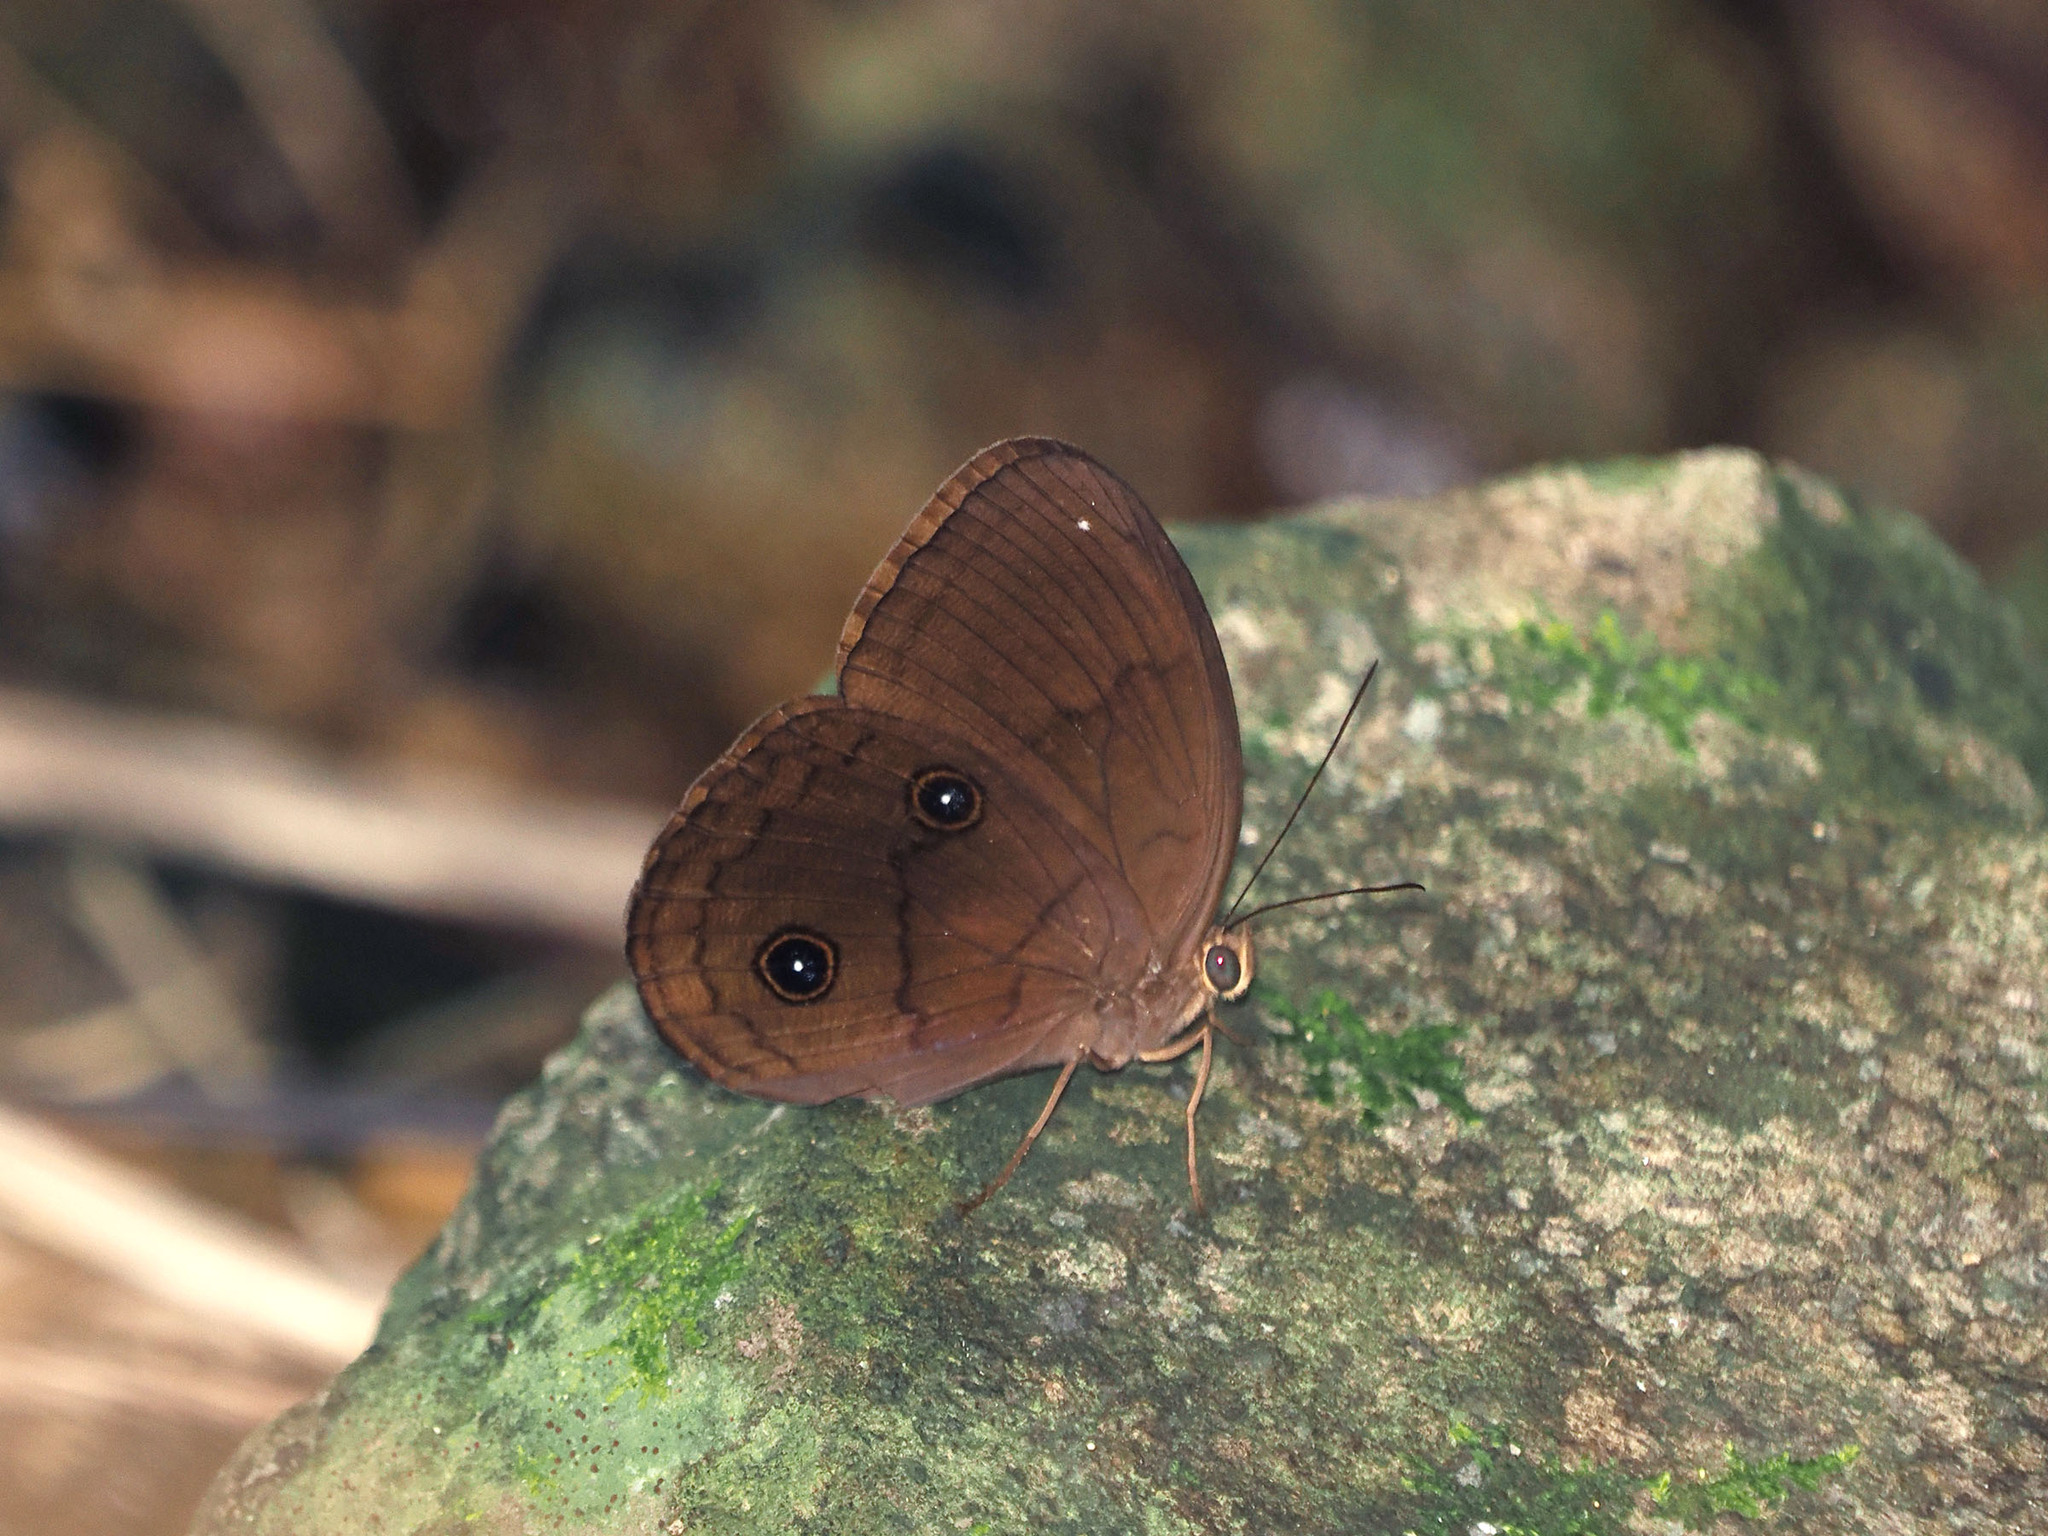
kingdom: Animalia
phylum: Arthropoda
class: Insecta
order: Lepidoptera
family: Nymphalidae
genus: Faunis
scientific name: Faunis phaon
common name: Faun butterfly
